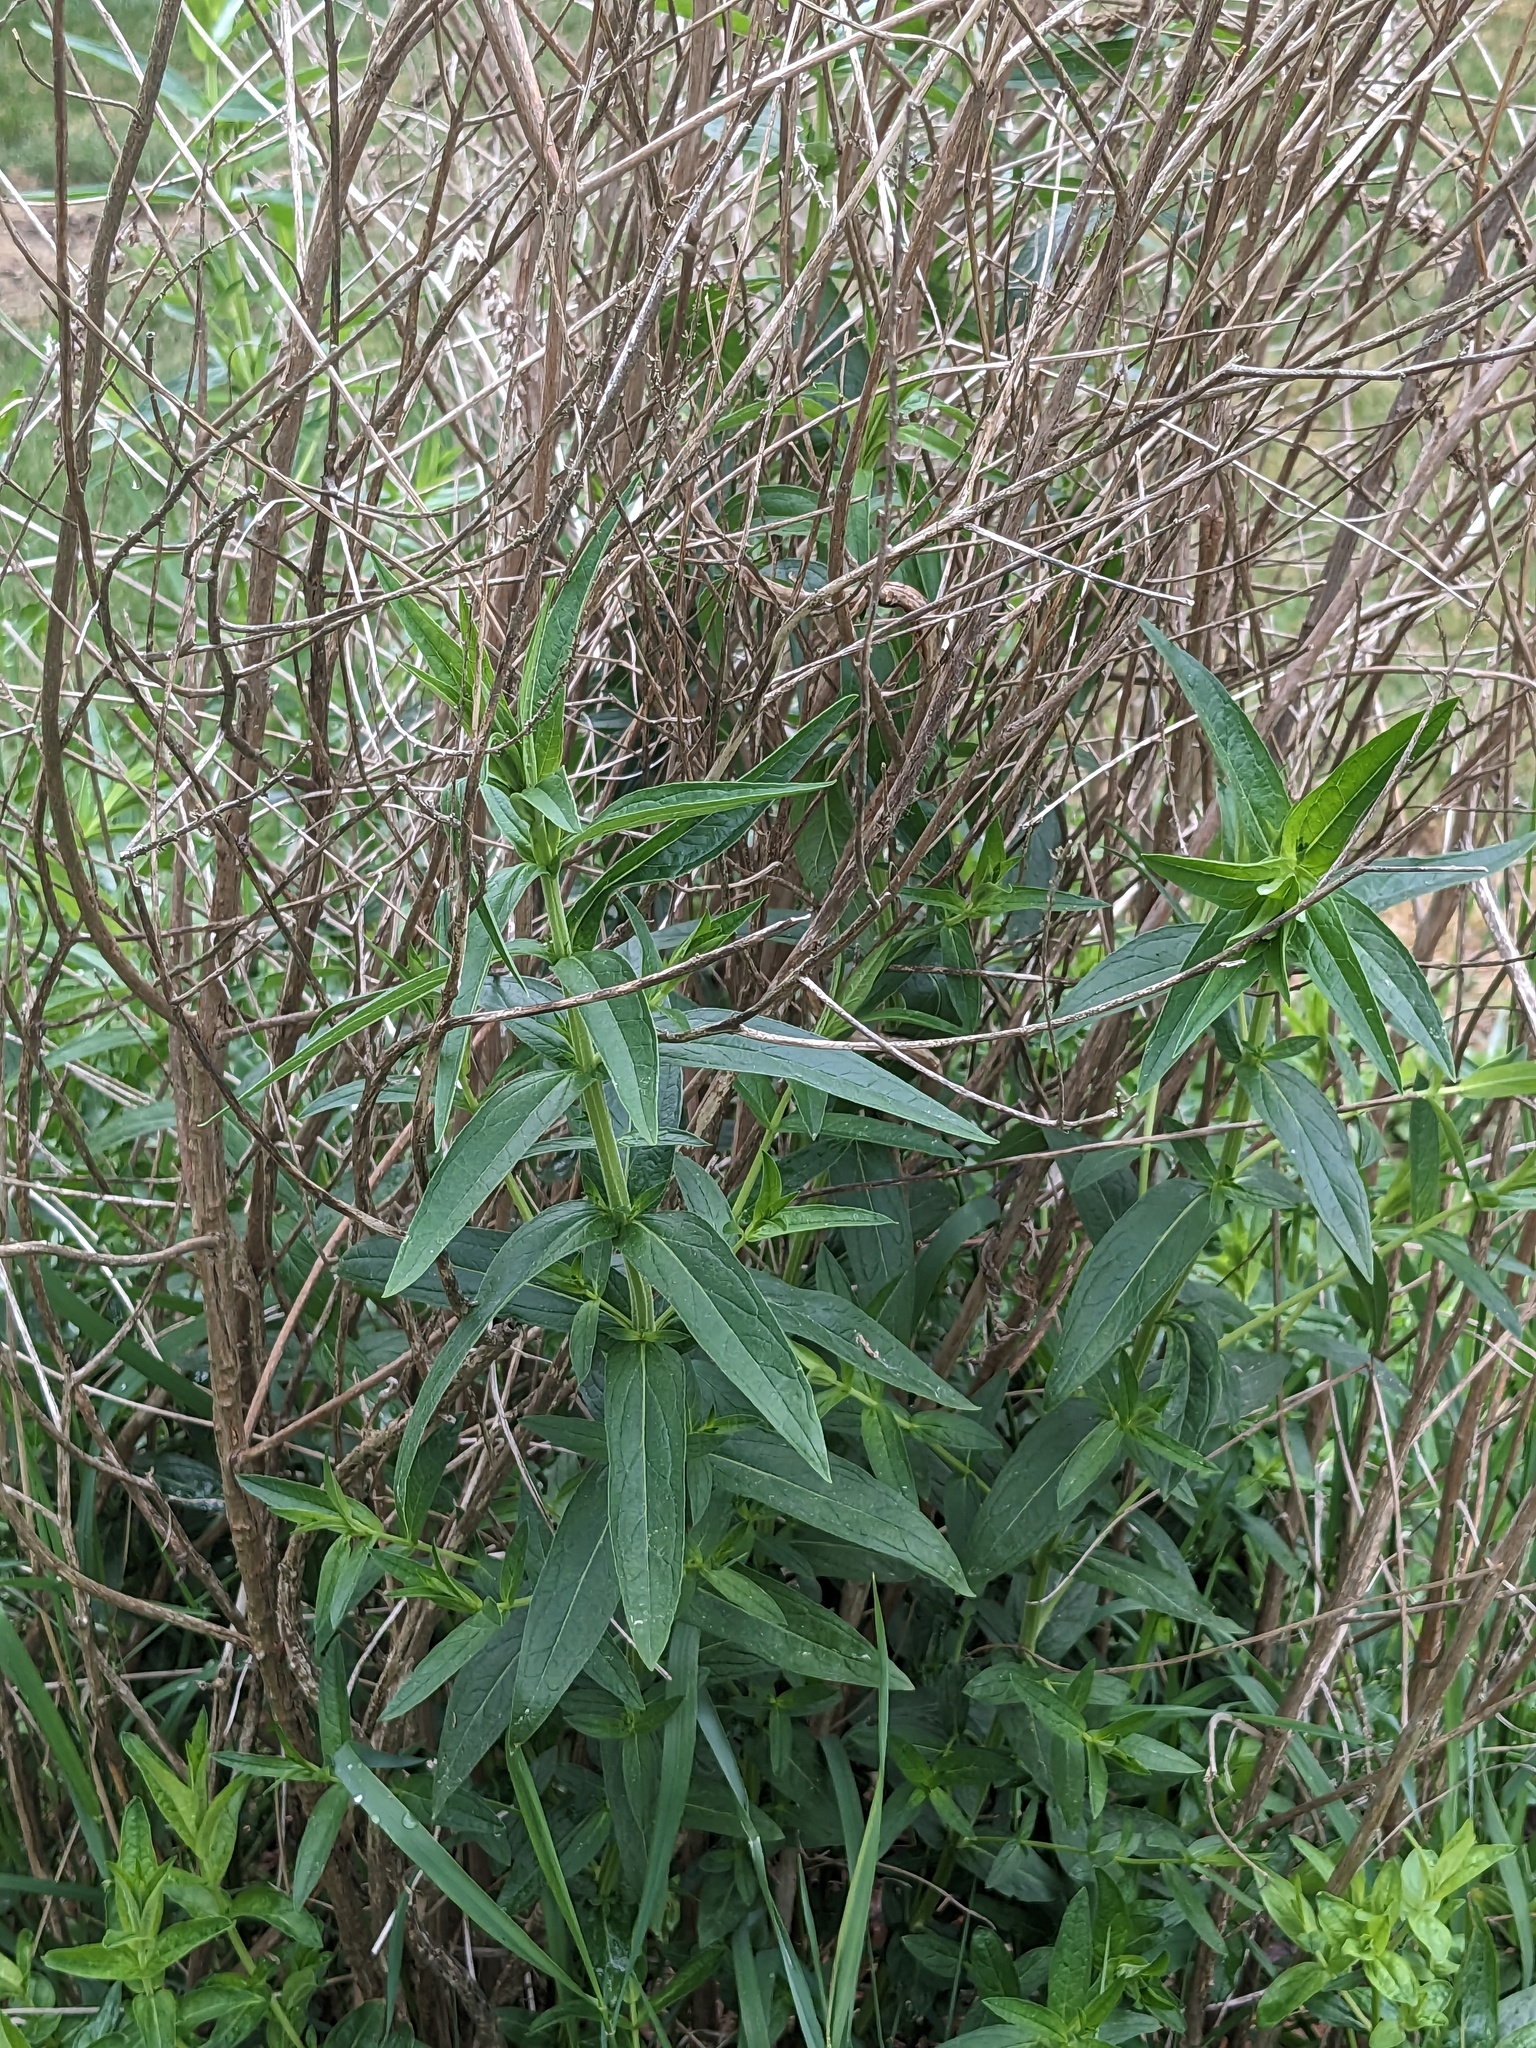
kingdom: Plantae
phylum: Tracheophyta
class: Magnoliopsida
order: Myrtales
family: Lythraceae
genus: Lythrum
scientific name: Lythrum salicaria
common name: Purple loosestrife
